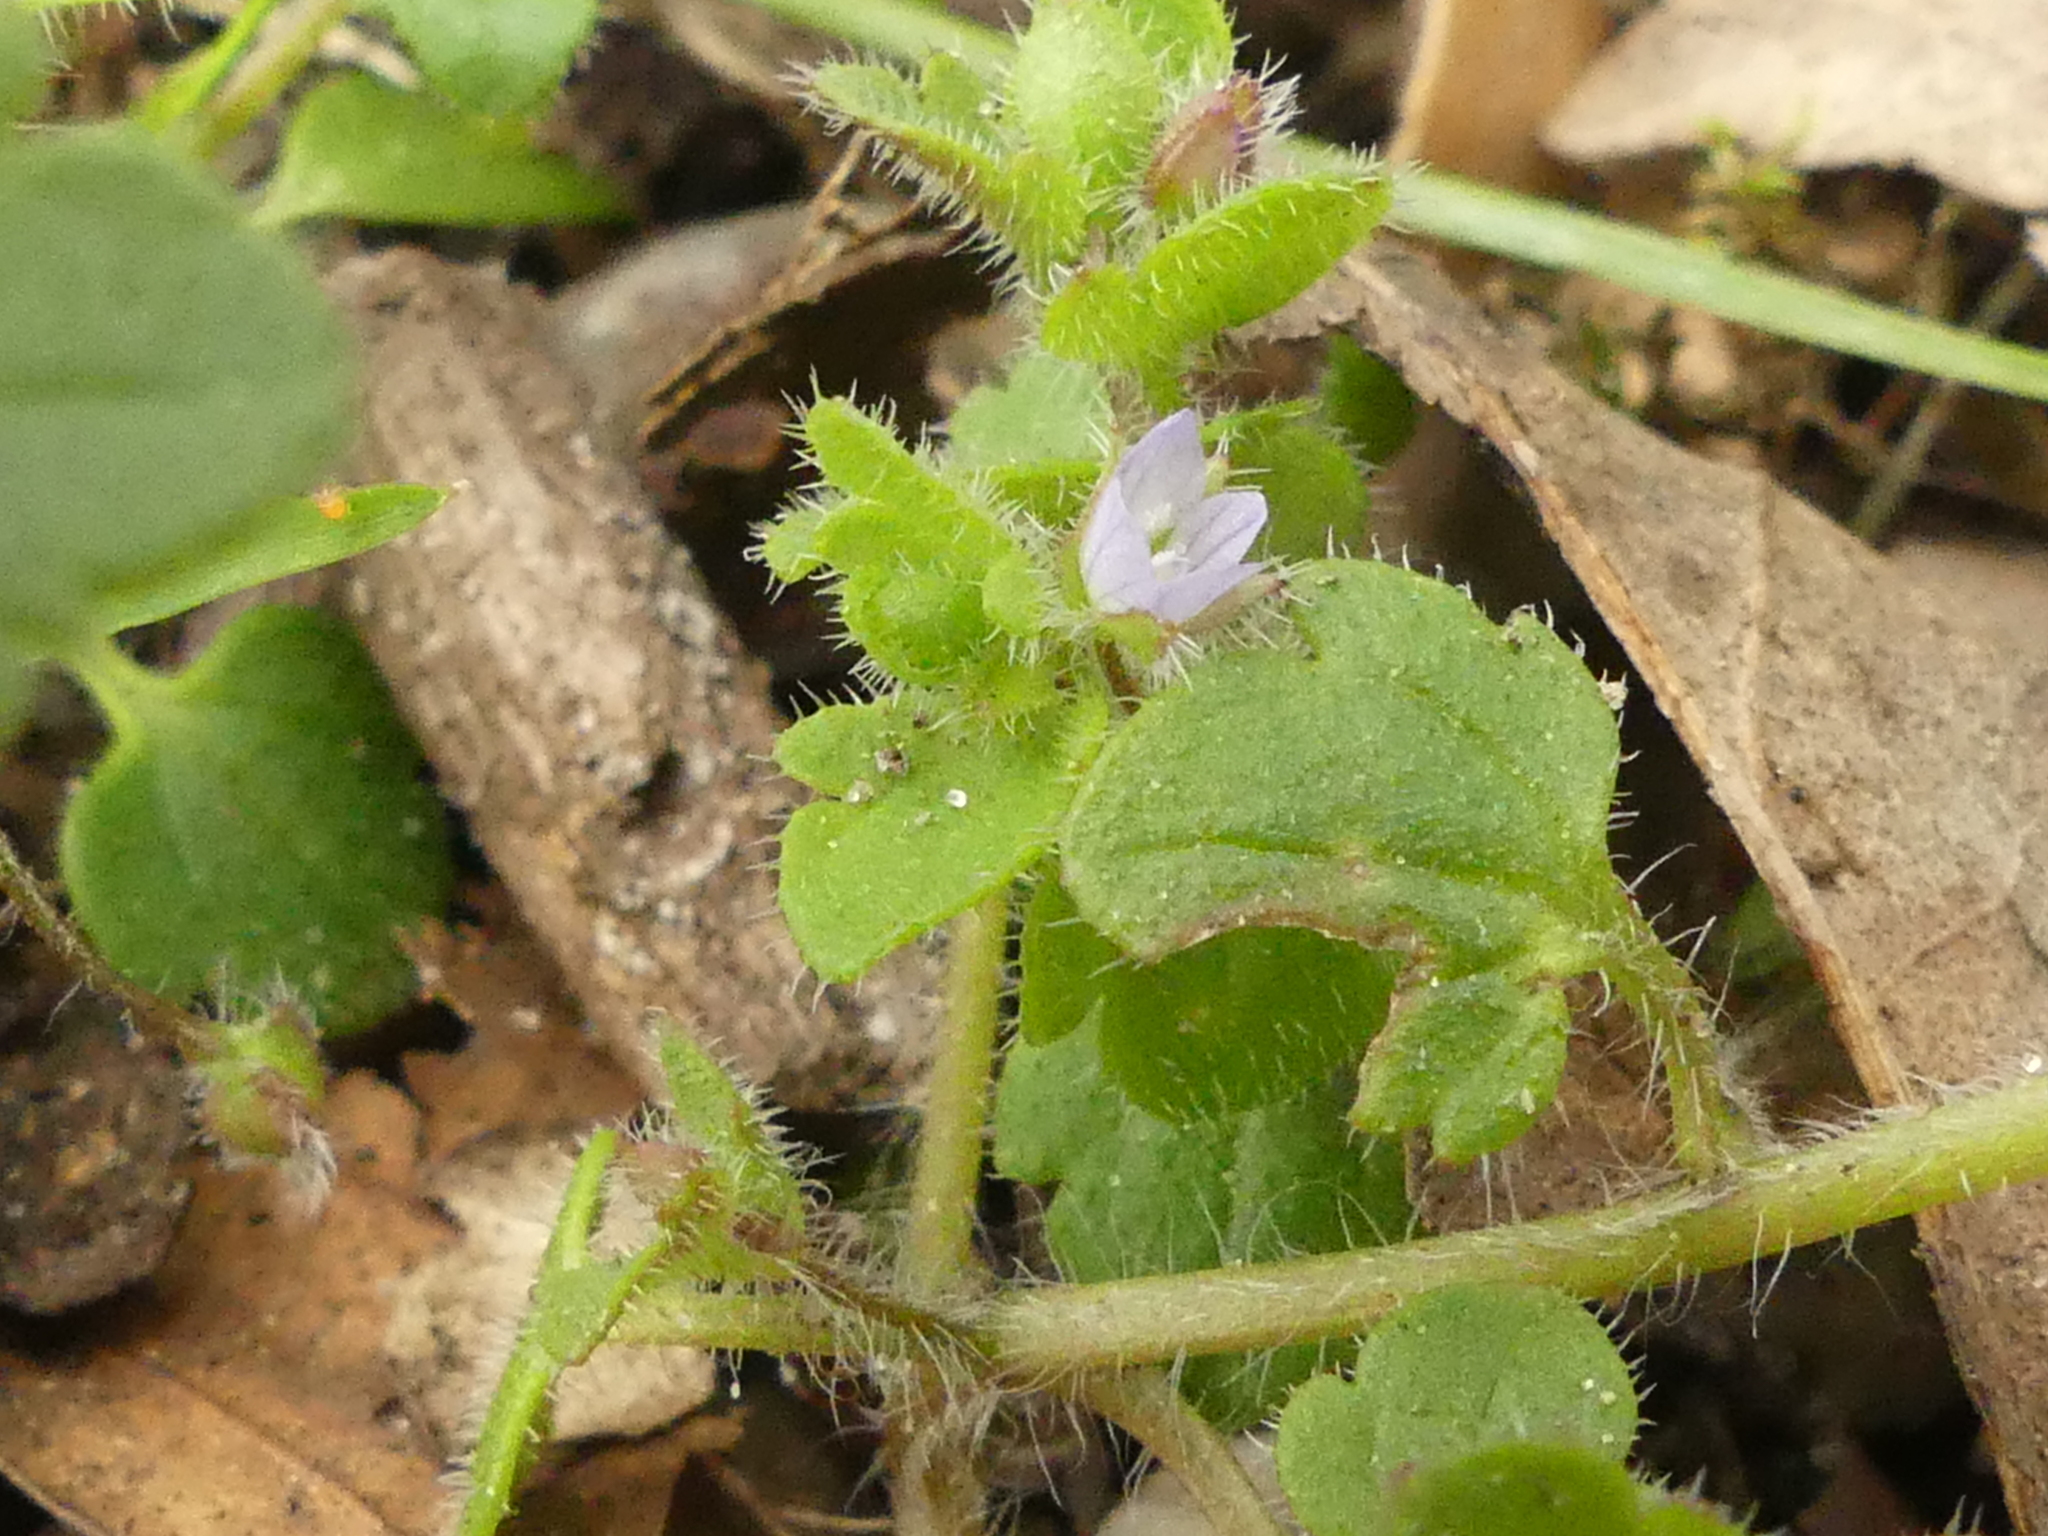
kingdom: Plantae
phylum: Tracheophyta
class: Magnoliopsida
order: Lamiales
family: Plantaginaceae
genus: Veronica
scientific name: Veronica sublobata
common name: False ivy-leaved speedwell
